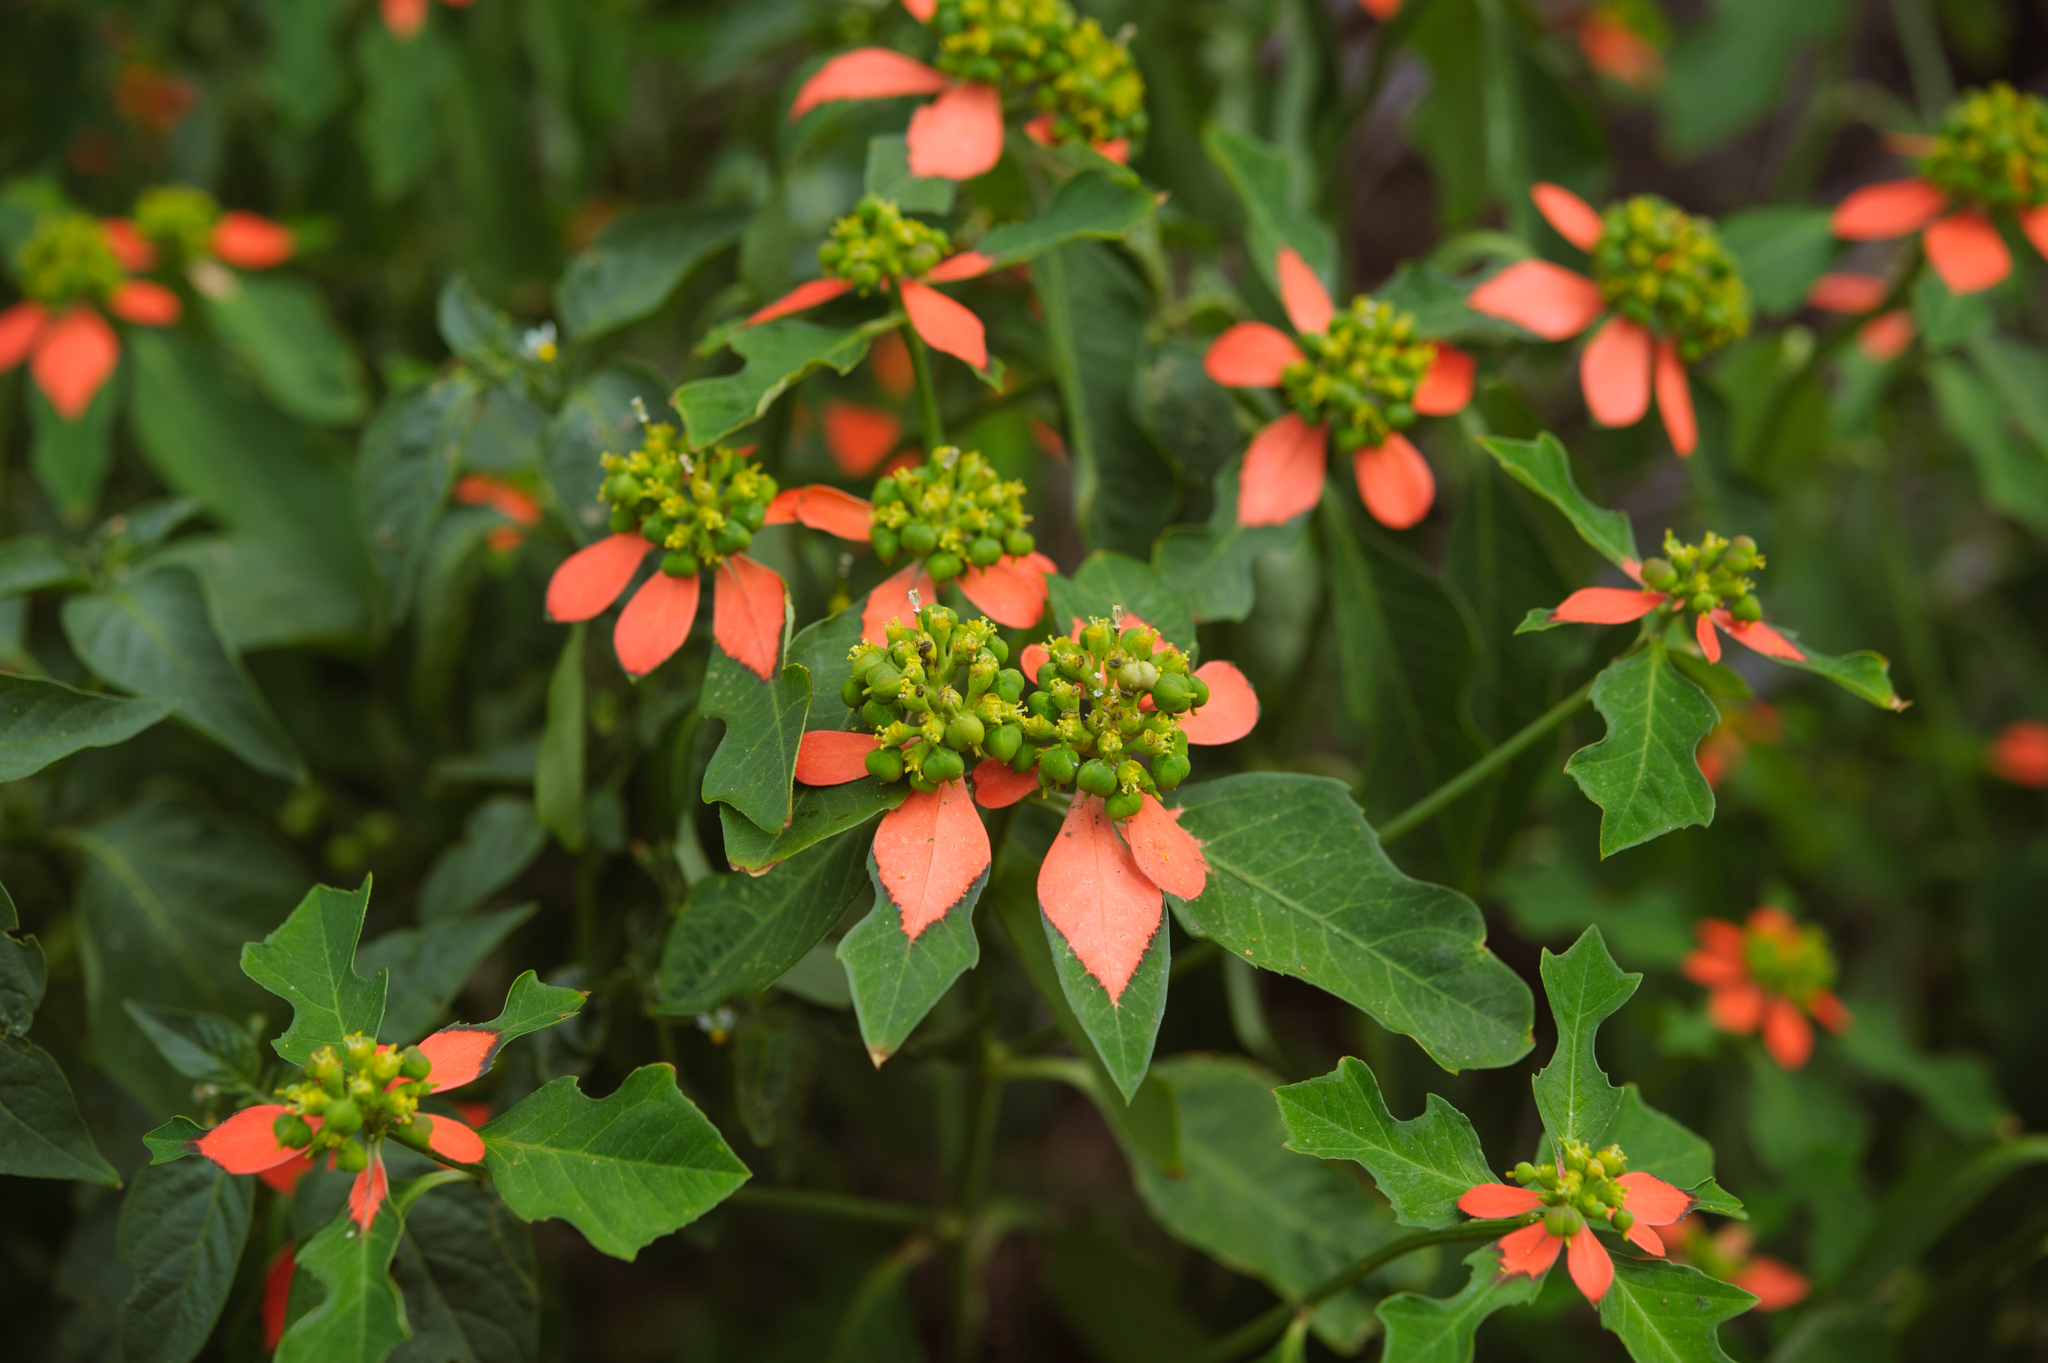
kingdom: Plantae
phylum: Tracheophyta
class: Magnoliopsida
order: Malpighiales
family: Euphorbiaceae
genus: Euphorbia
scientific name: Euphorbia heterophylla
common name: Mexican fireplant
